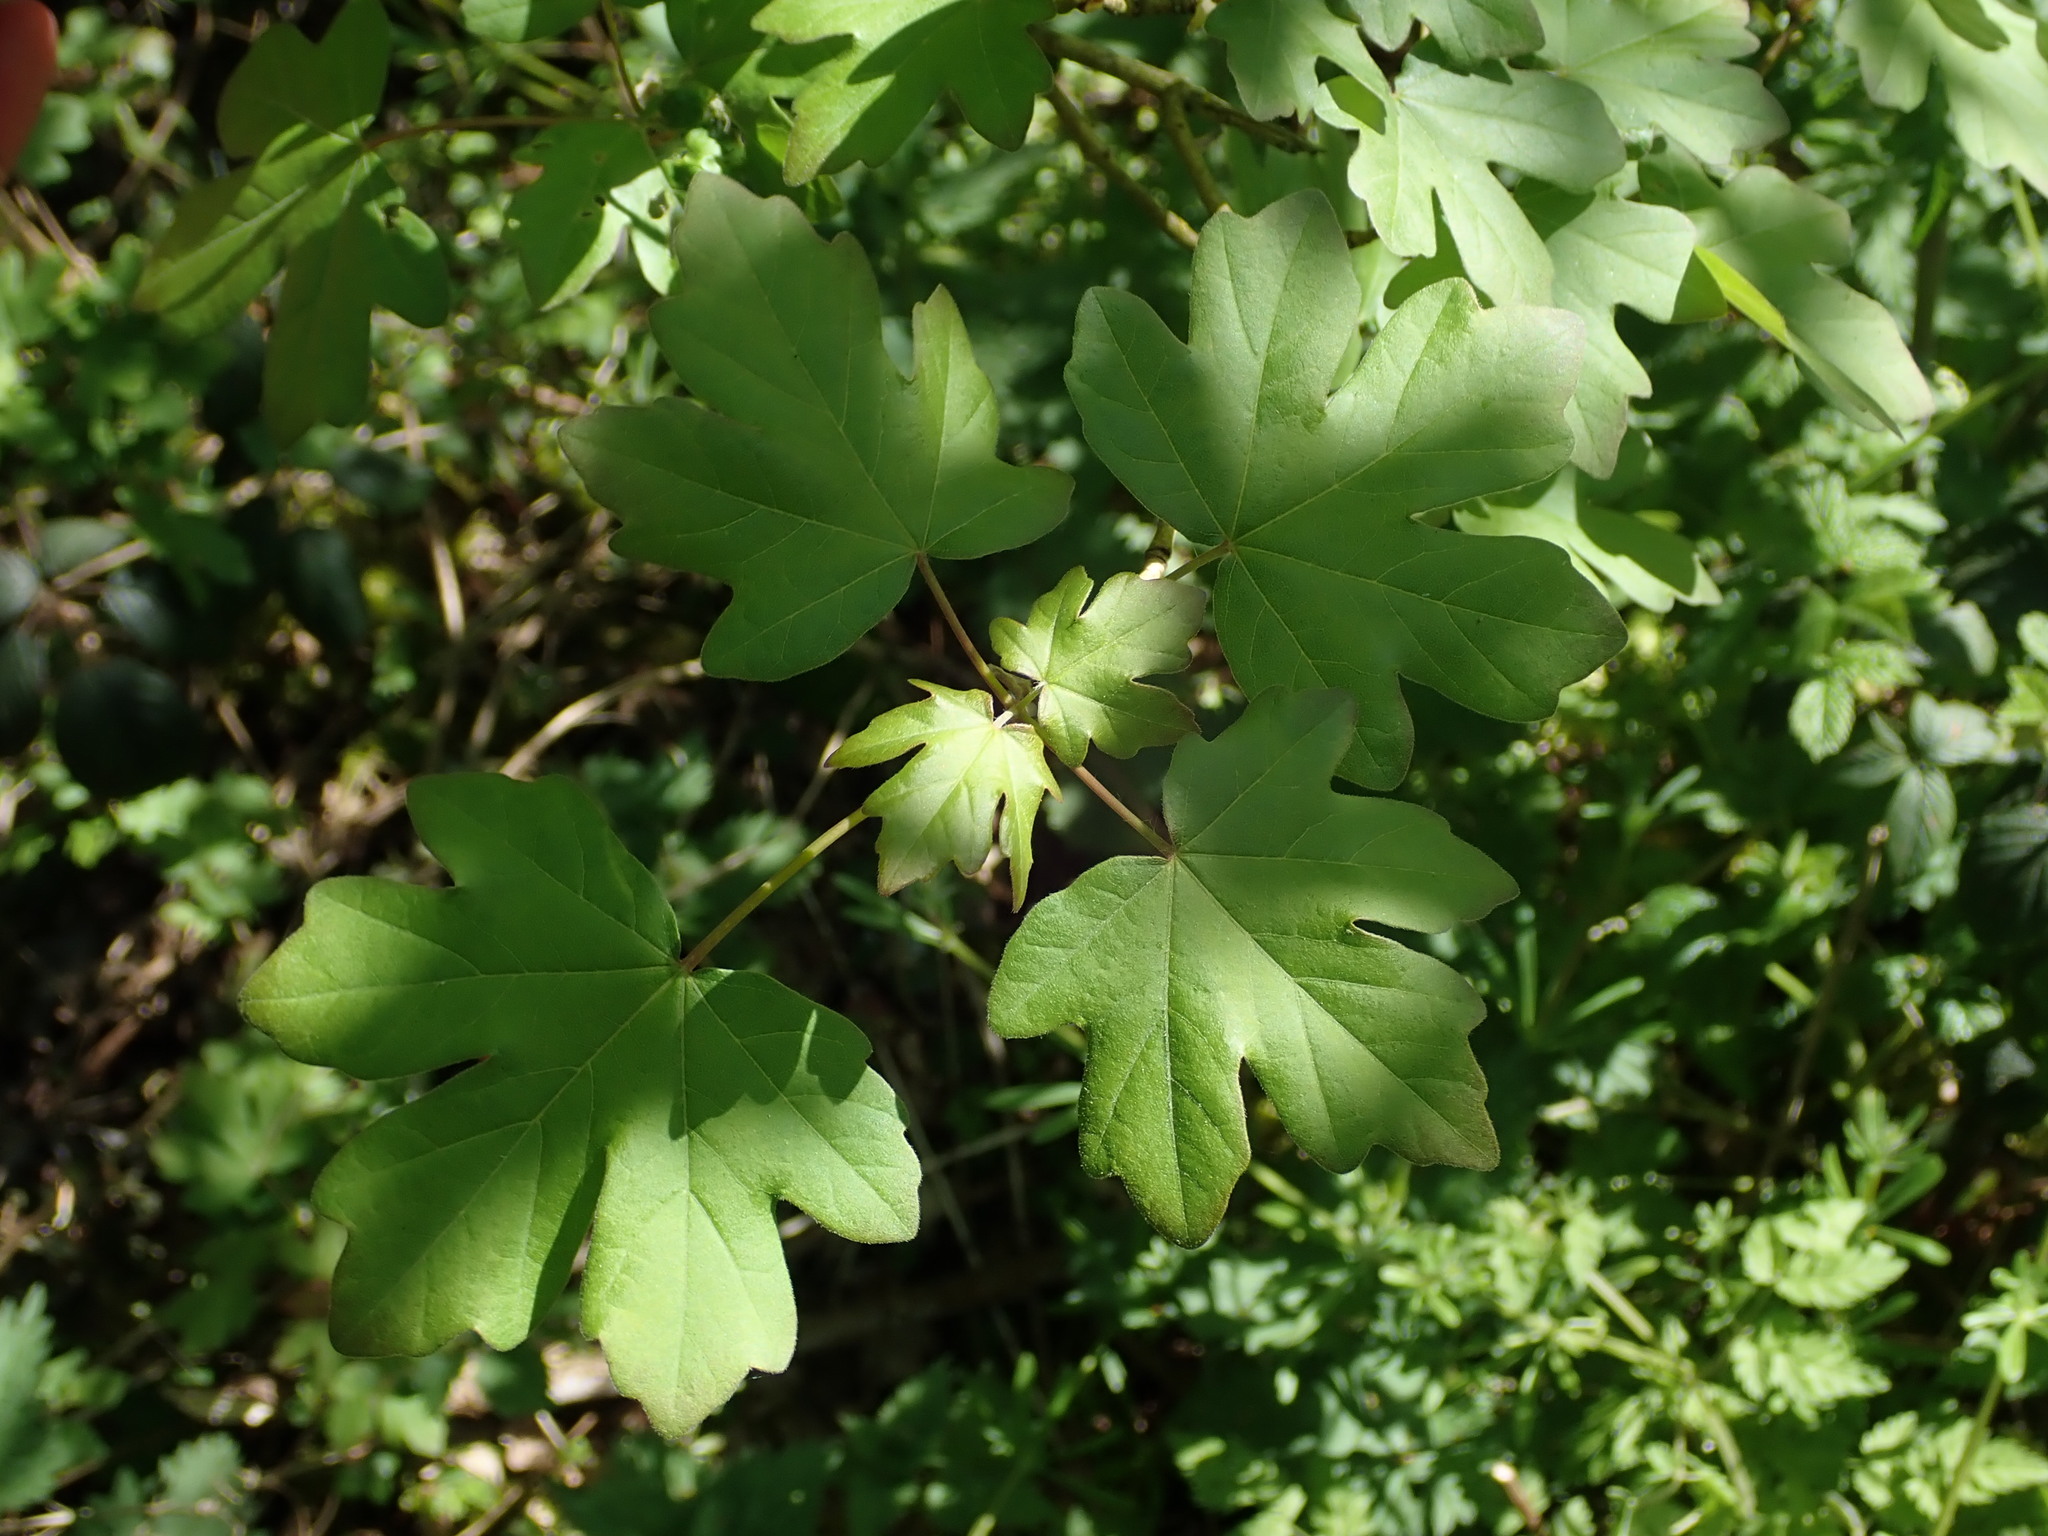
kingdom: Plantae
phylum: Tracheophyta
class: Magnoliopsida
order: Sapindales
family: Sapindaceae
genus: Acer
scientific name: Acer campestre
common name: Field maple
